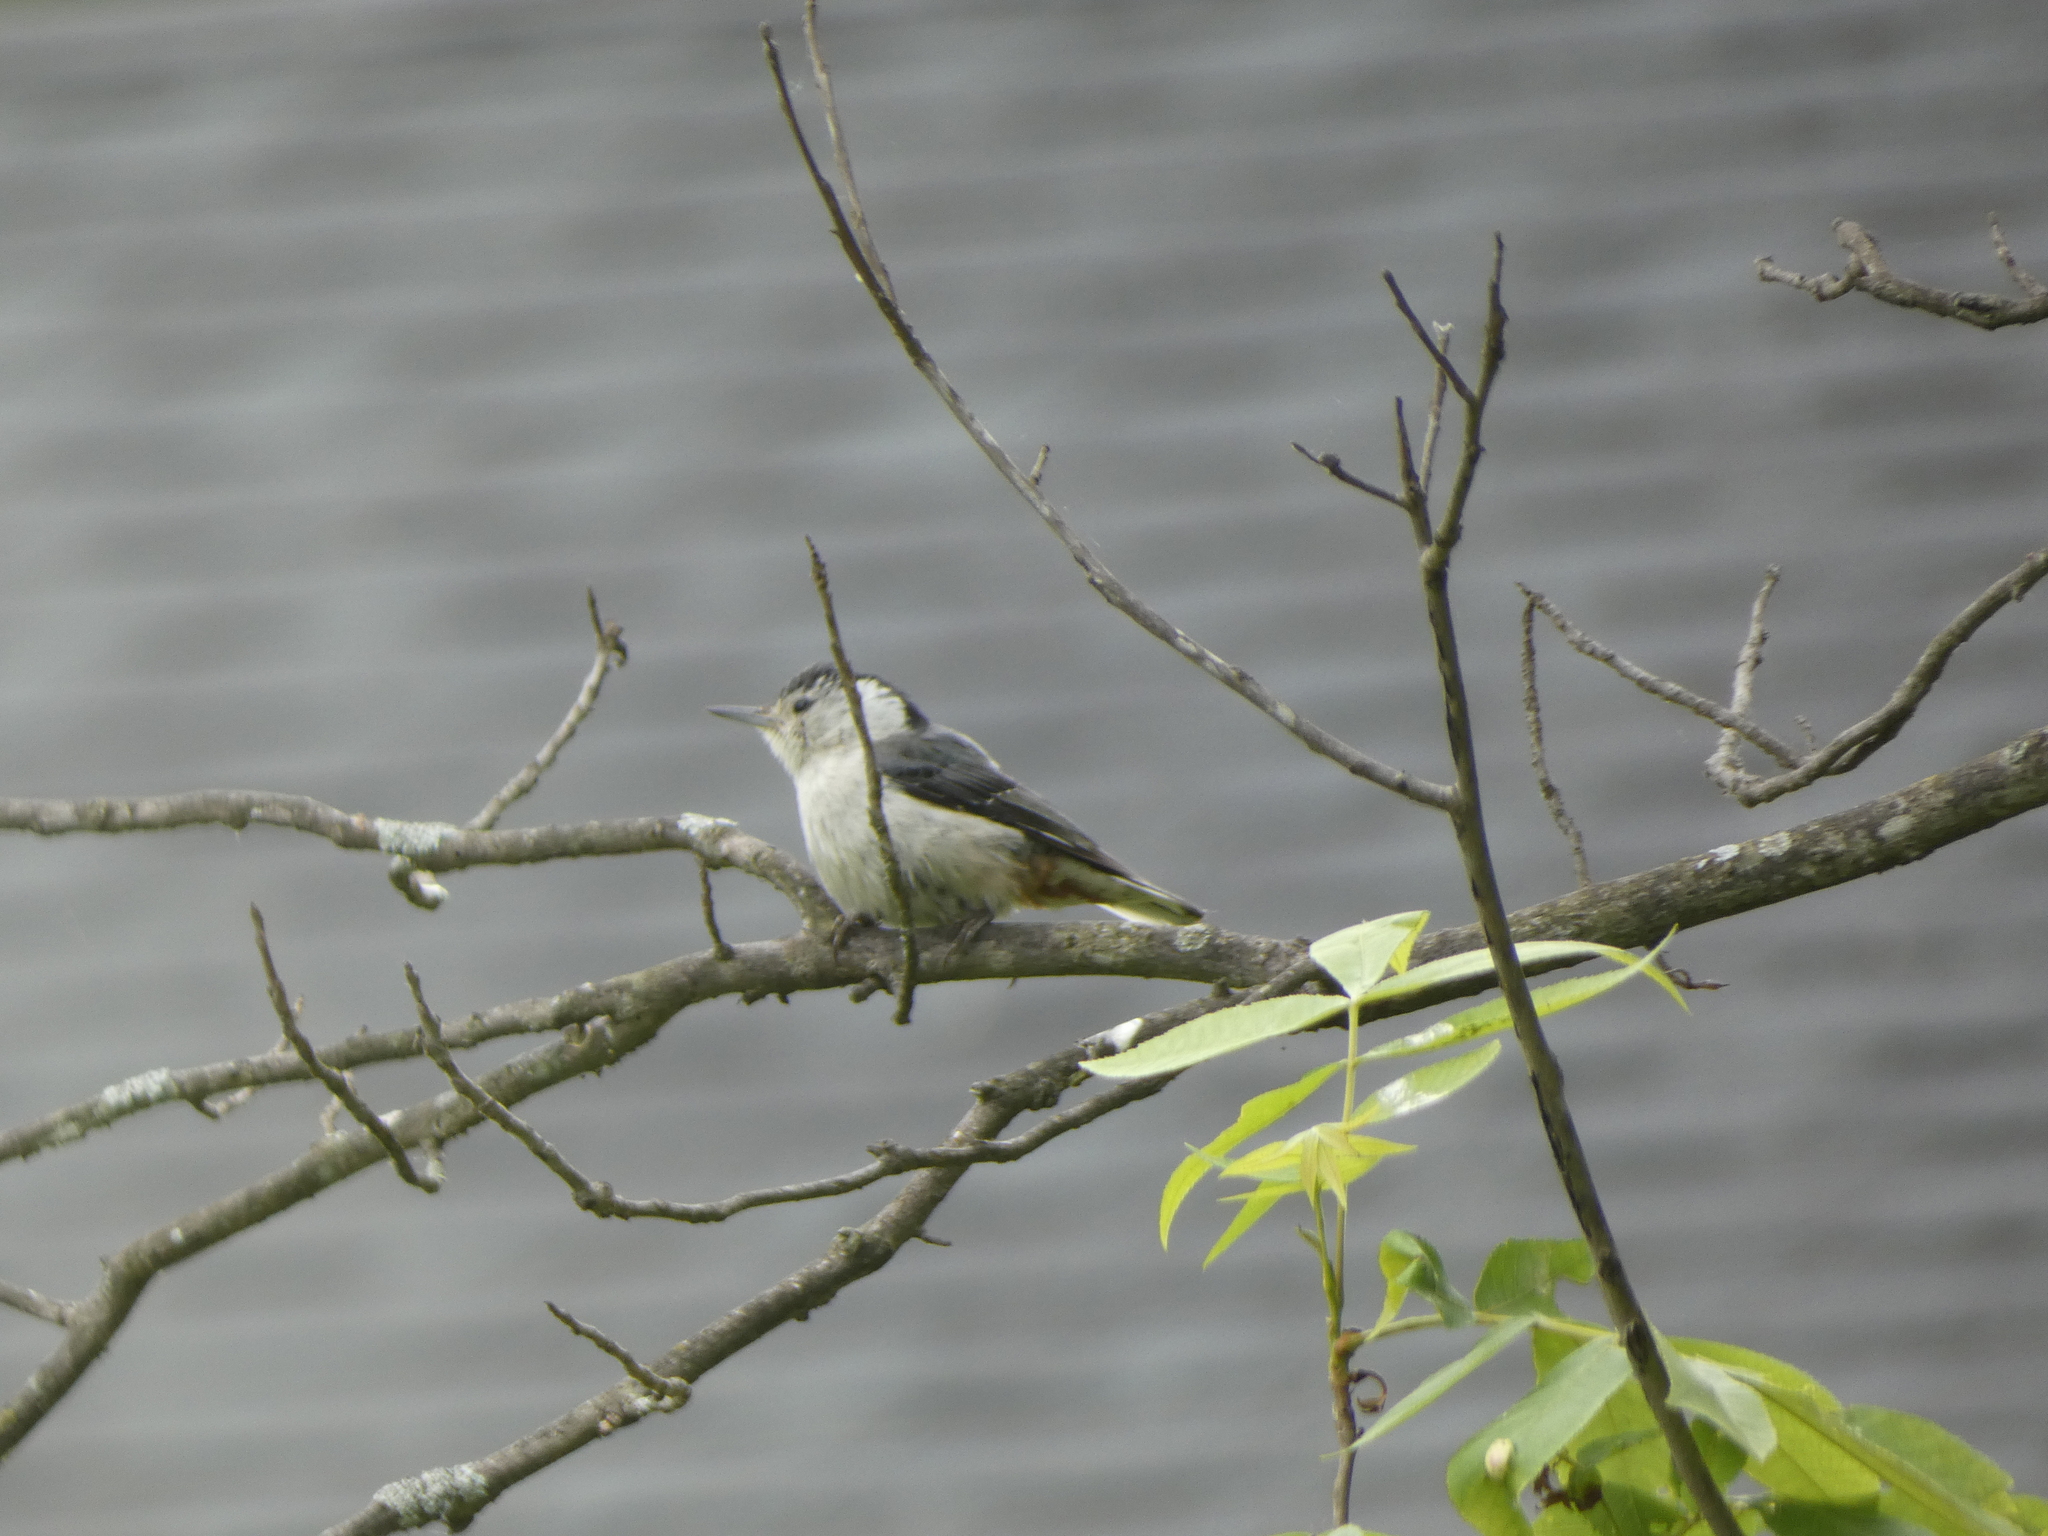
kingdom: Animalia
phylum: Chordata
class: Aves
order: Passeriformes
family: Sittidae
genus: Sitta
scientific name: Sitta carolinensis
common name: White-breasted nuthatch
